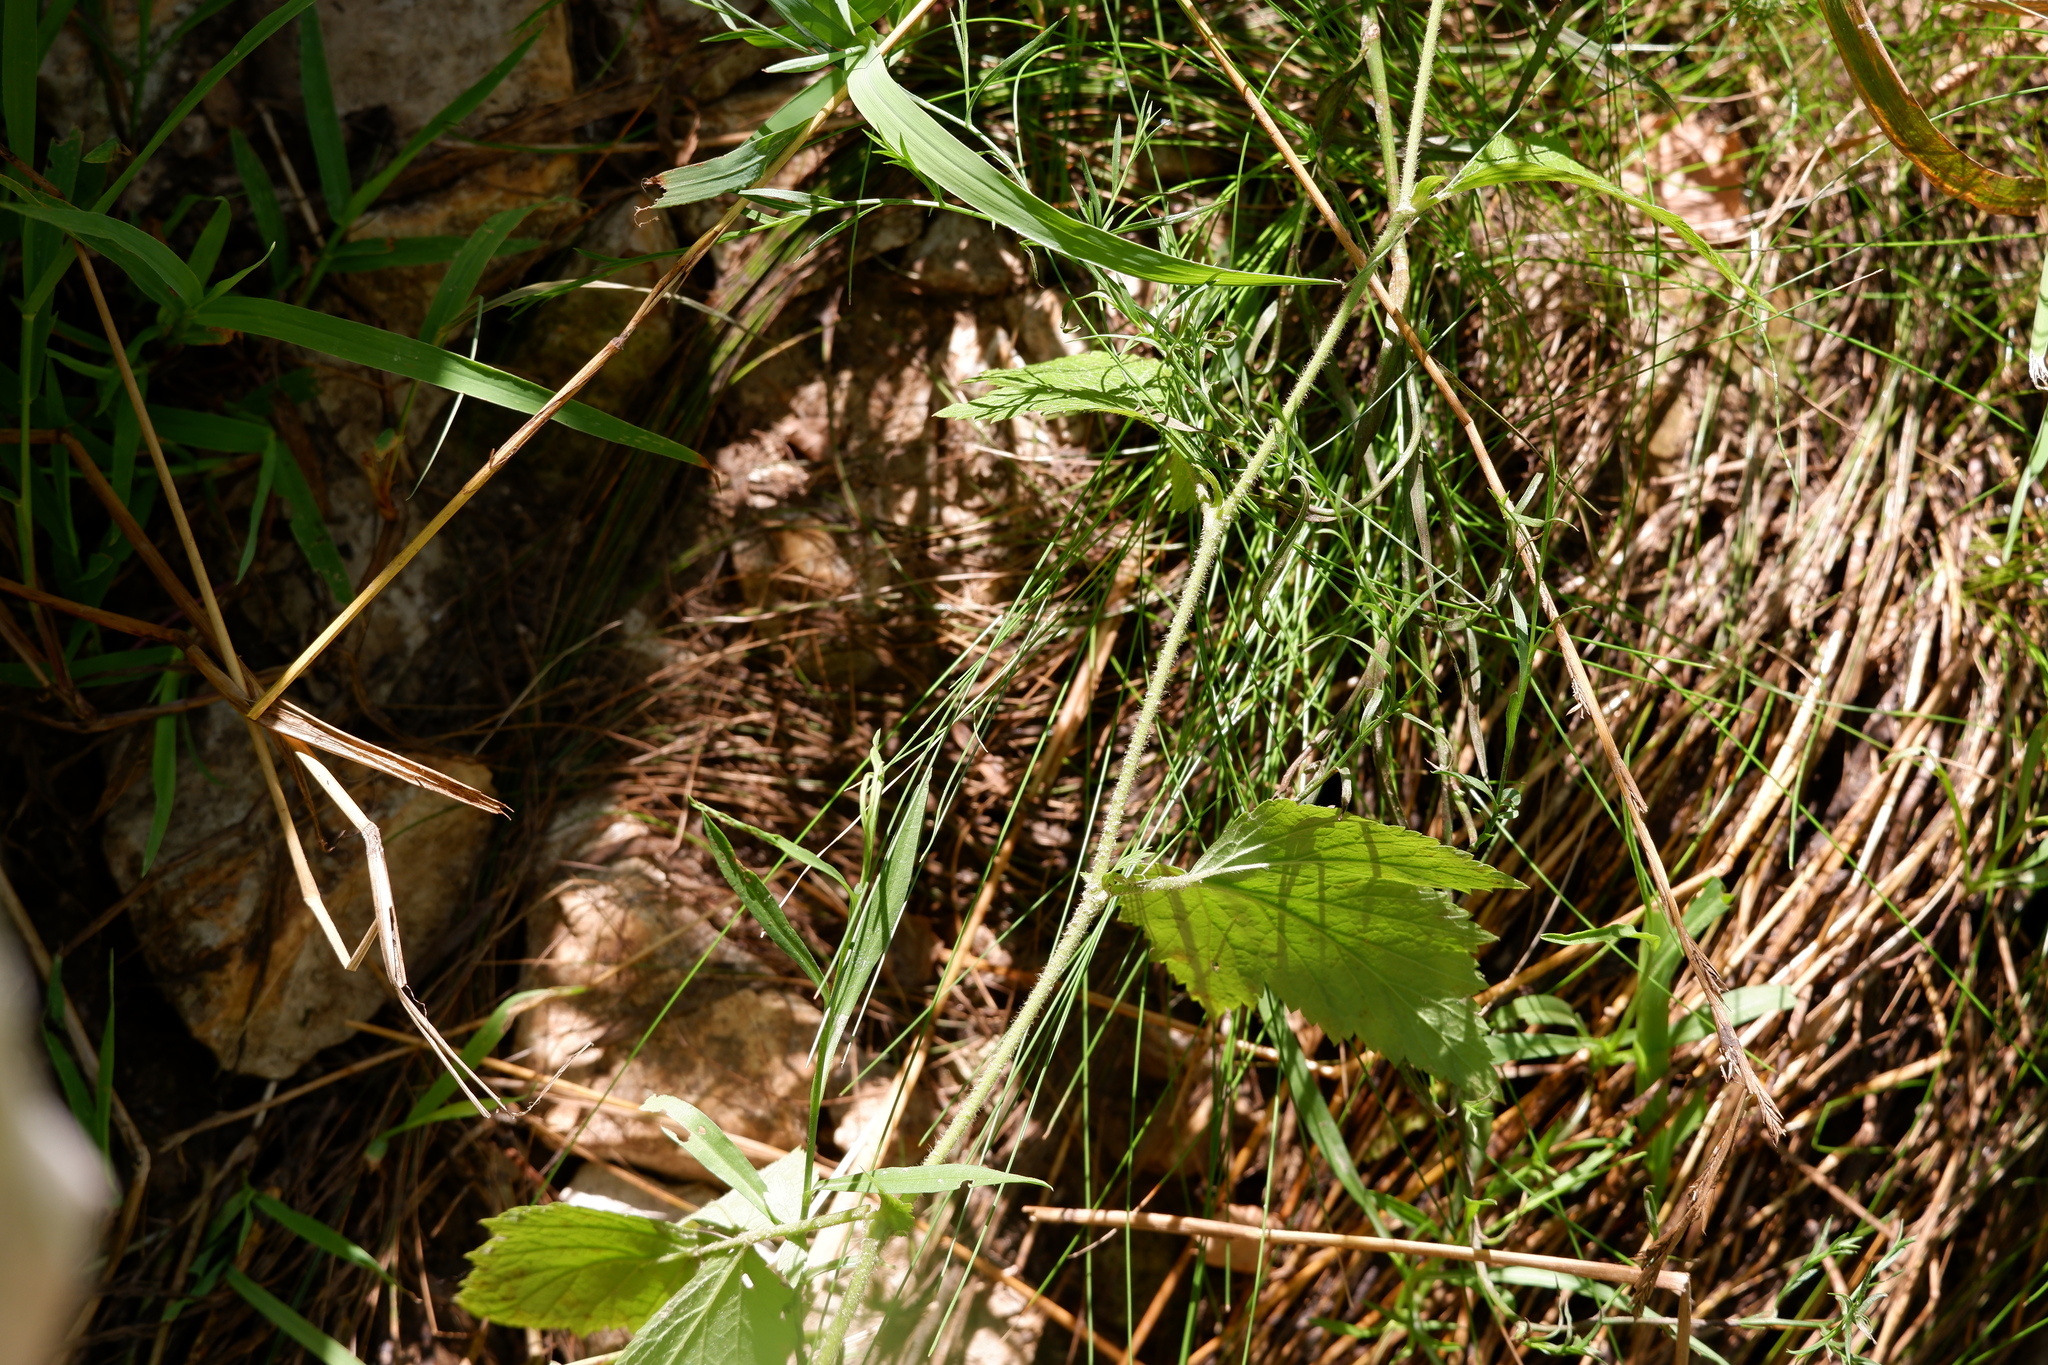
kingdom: Plantae
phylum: Tracheophyta
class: Magnoliopsida
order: Rosales
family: Rosaceae
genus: Geum
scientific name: Geum canadense
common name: White avens
